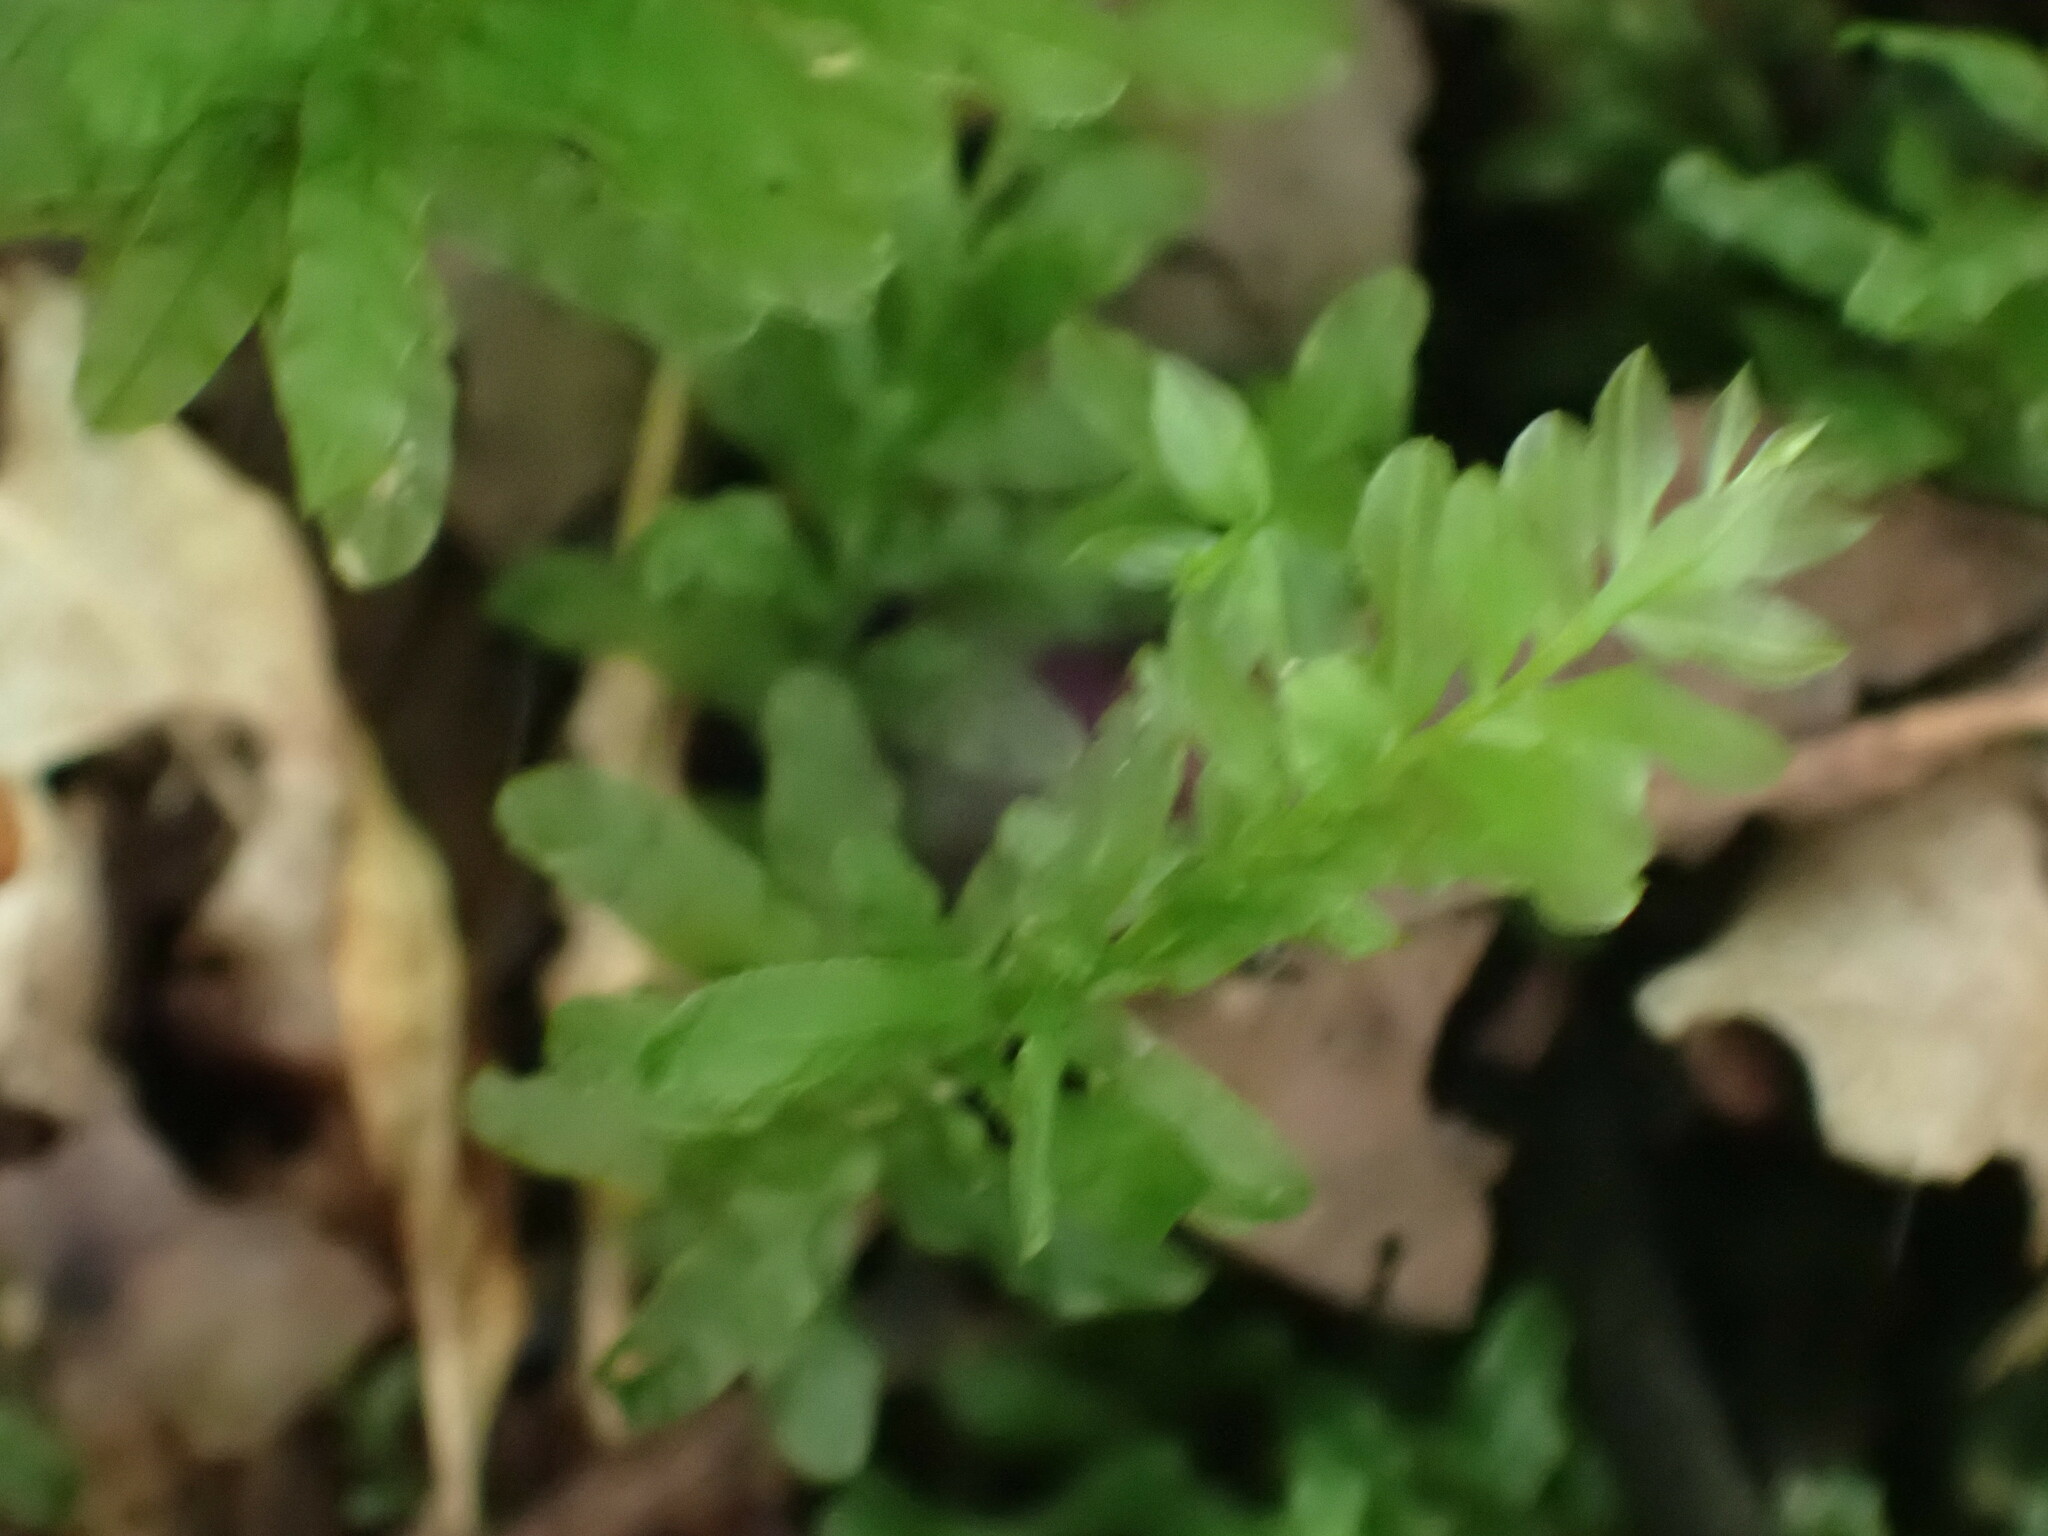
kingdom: Plantae
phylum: Bryophyta
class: Bryopsida
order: Bryales
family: Mniaceae
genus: Plagiomnium
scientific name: Plagiomnium undulatum
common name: Hart's-tongue thyme-moss
